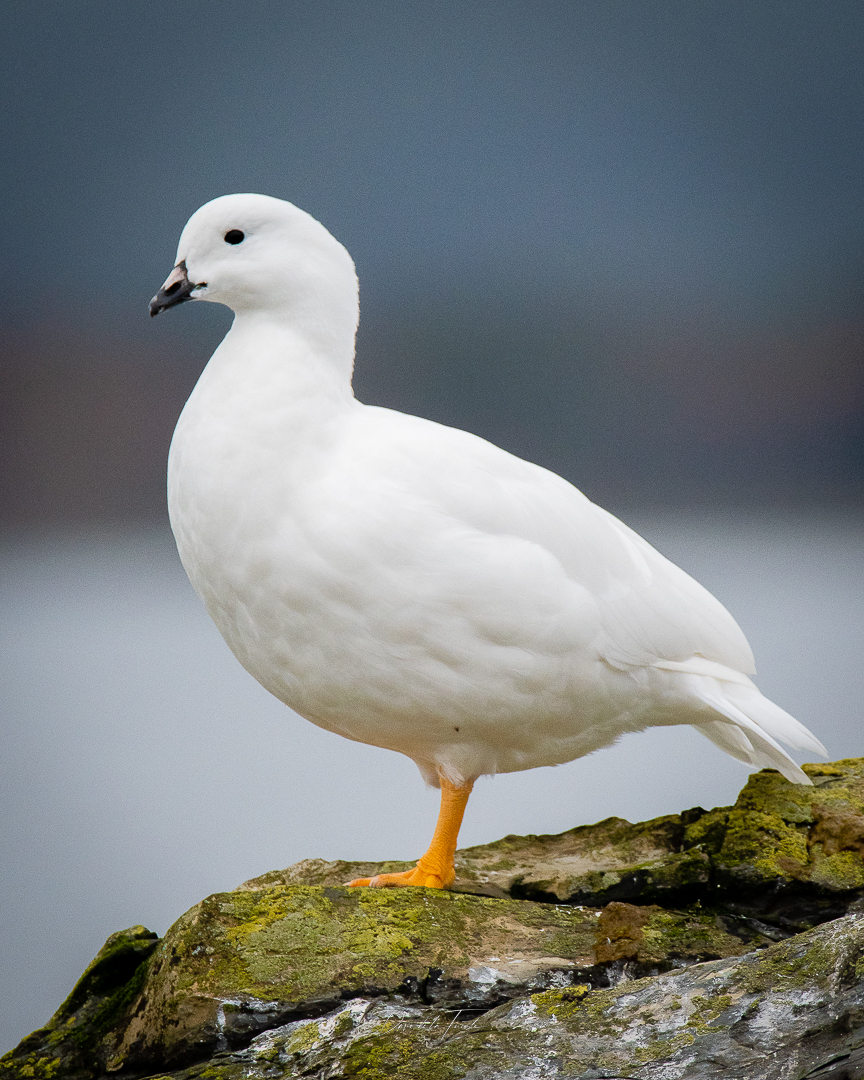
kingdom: Animalia
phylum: Chordata
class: Aves
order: Anseriformes
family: Anatidae
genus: Chloephaga
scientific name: Chloephaga hybrida
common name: Kelp goose
